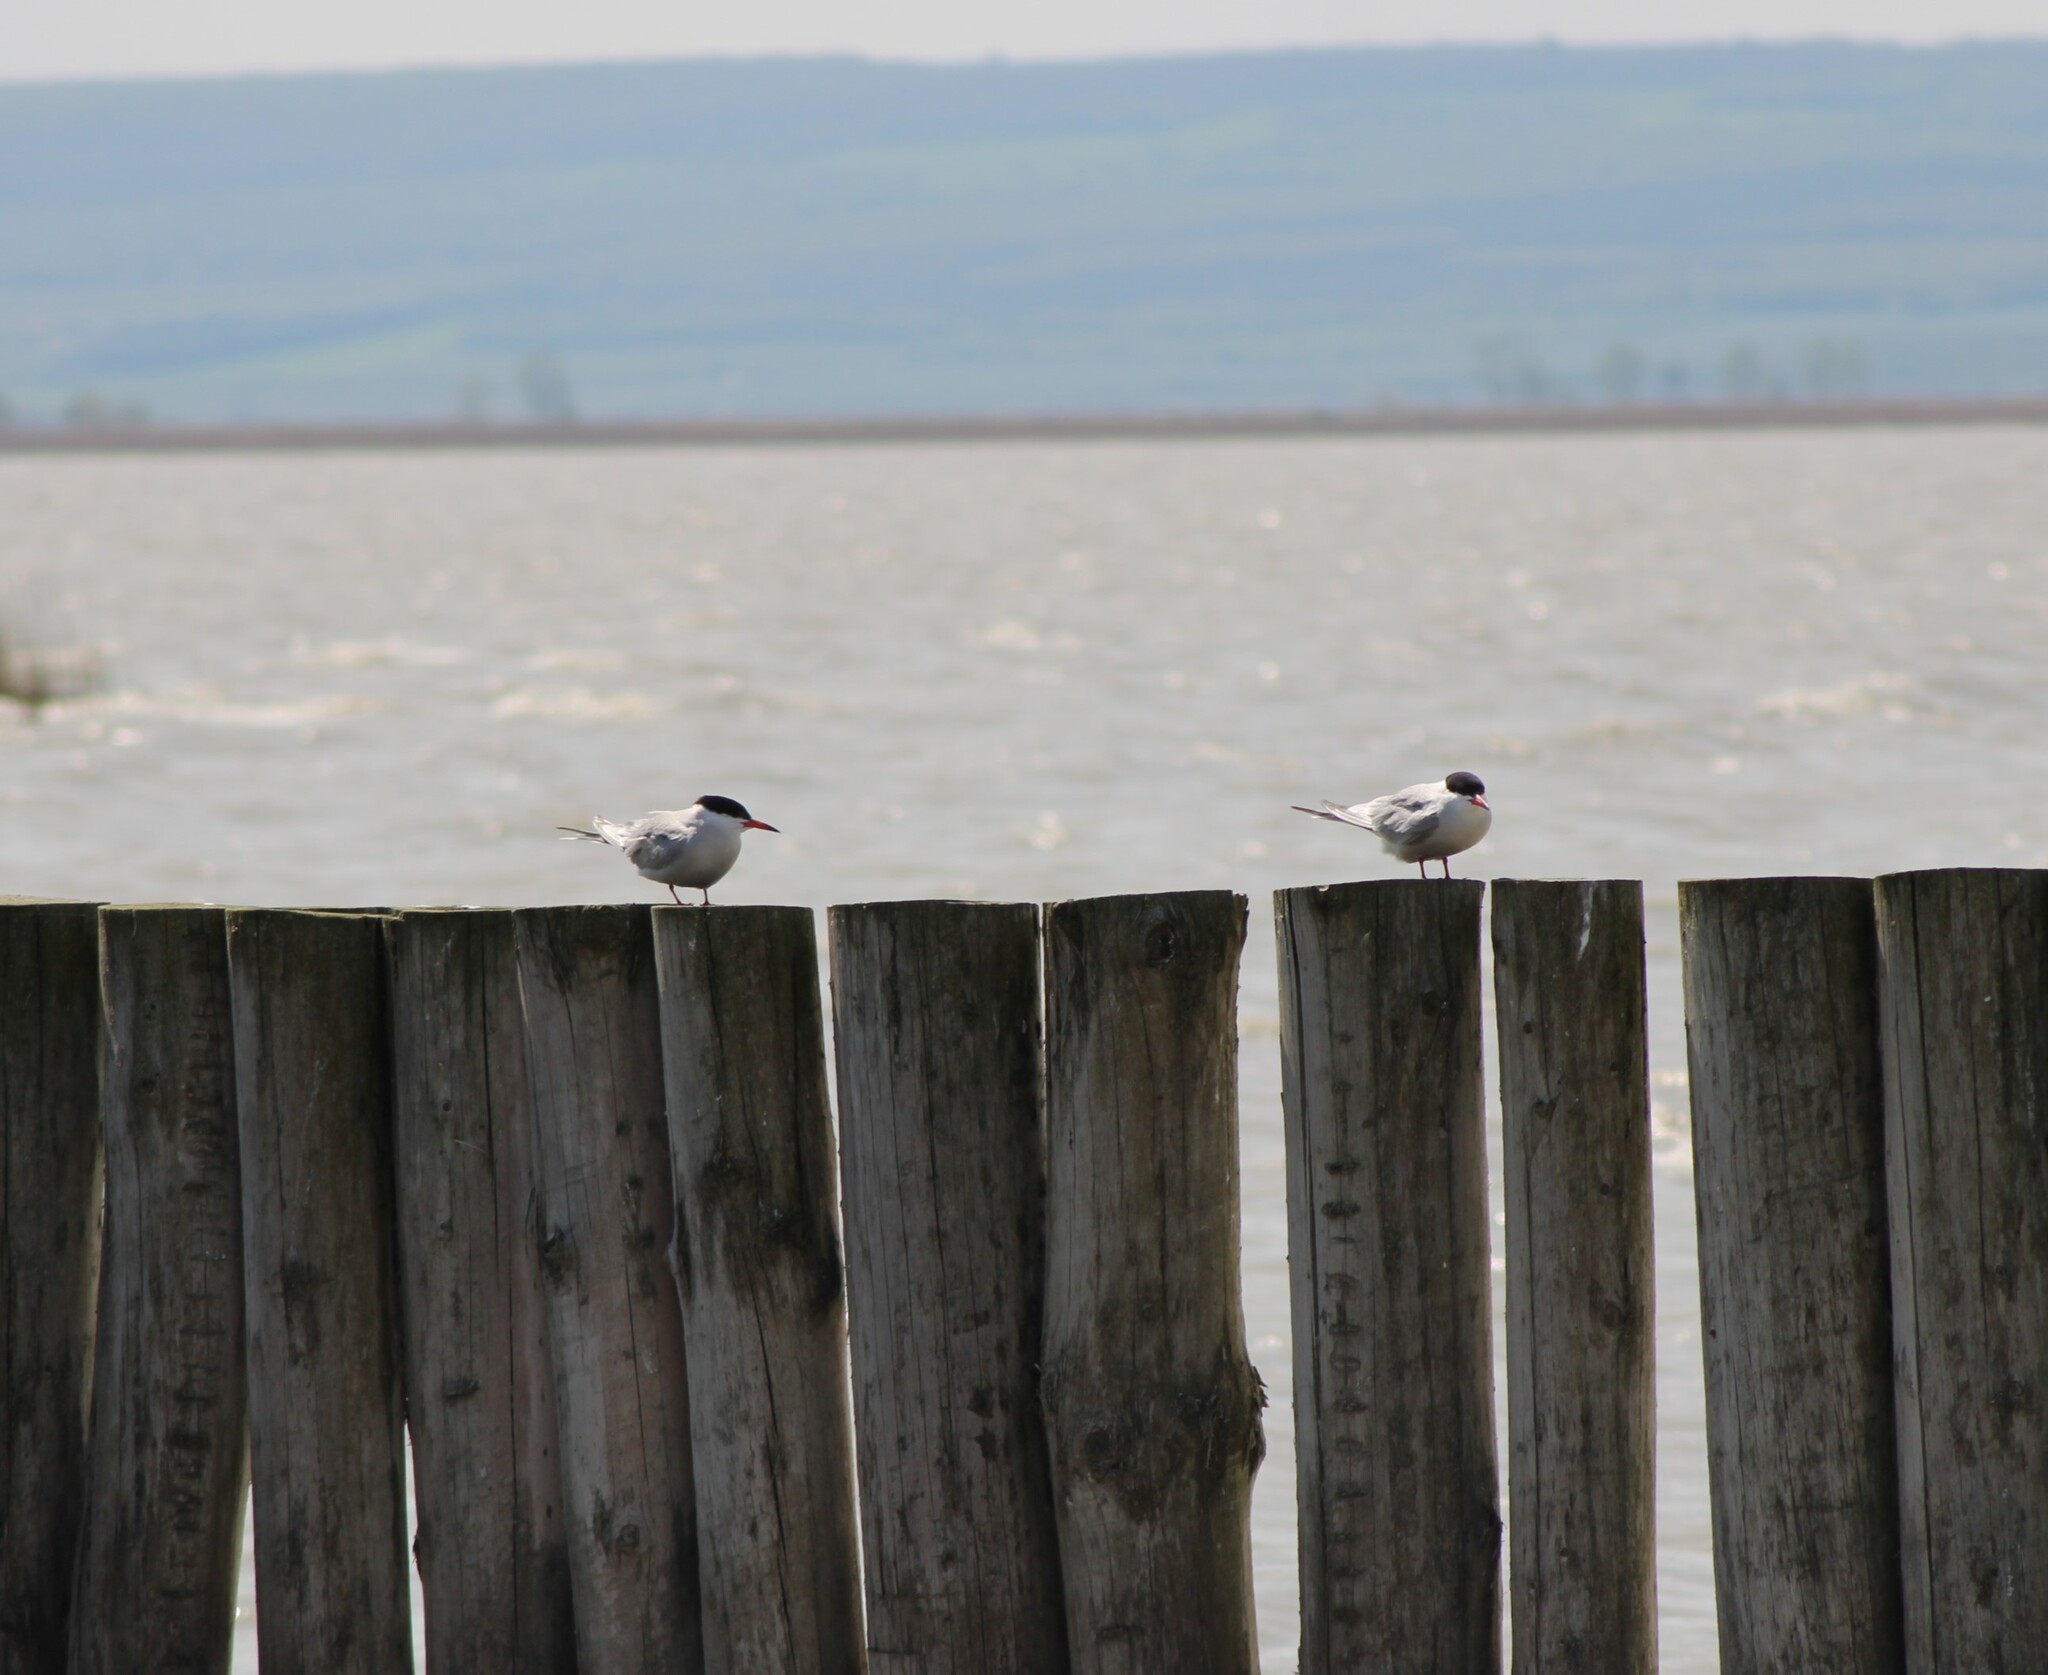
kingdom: Animalia
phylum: Chordata
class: Aves
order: Charadriiformes
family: Laridae
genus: Sterna
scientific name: Sterna hirundo
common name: Common tern
